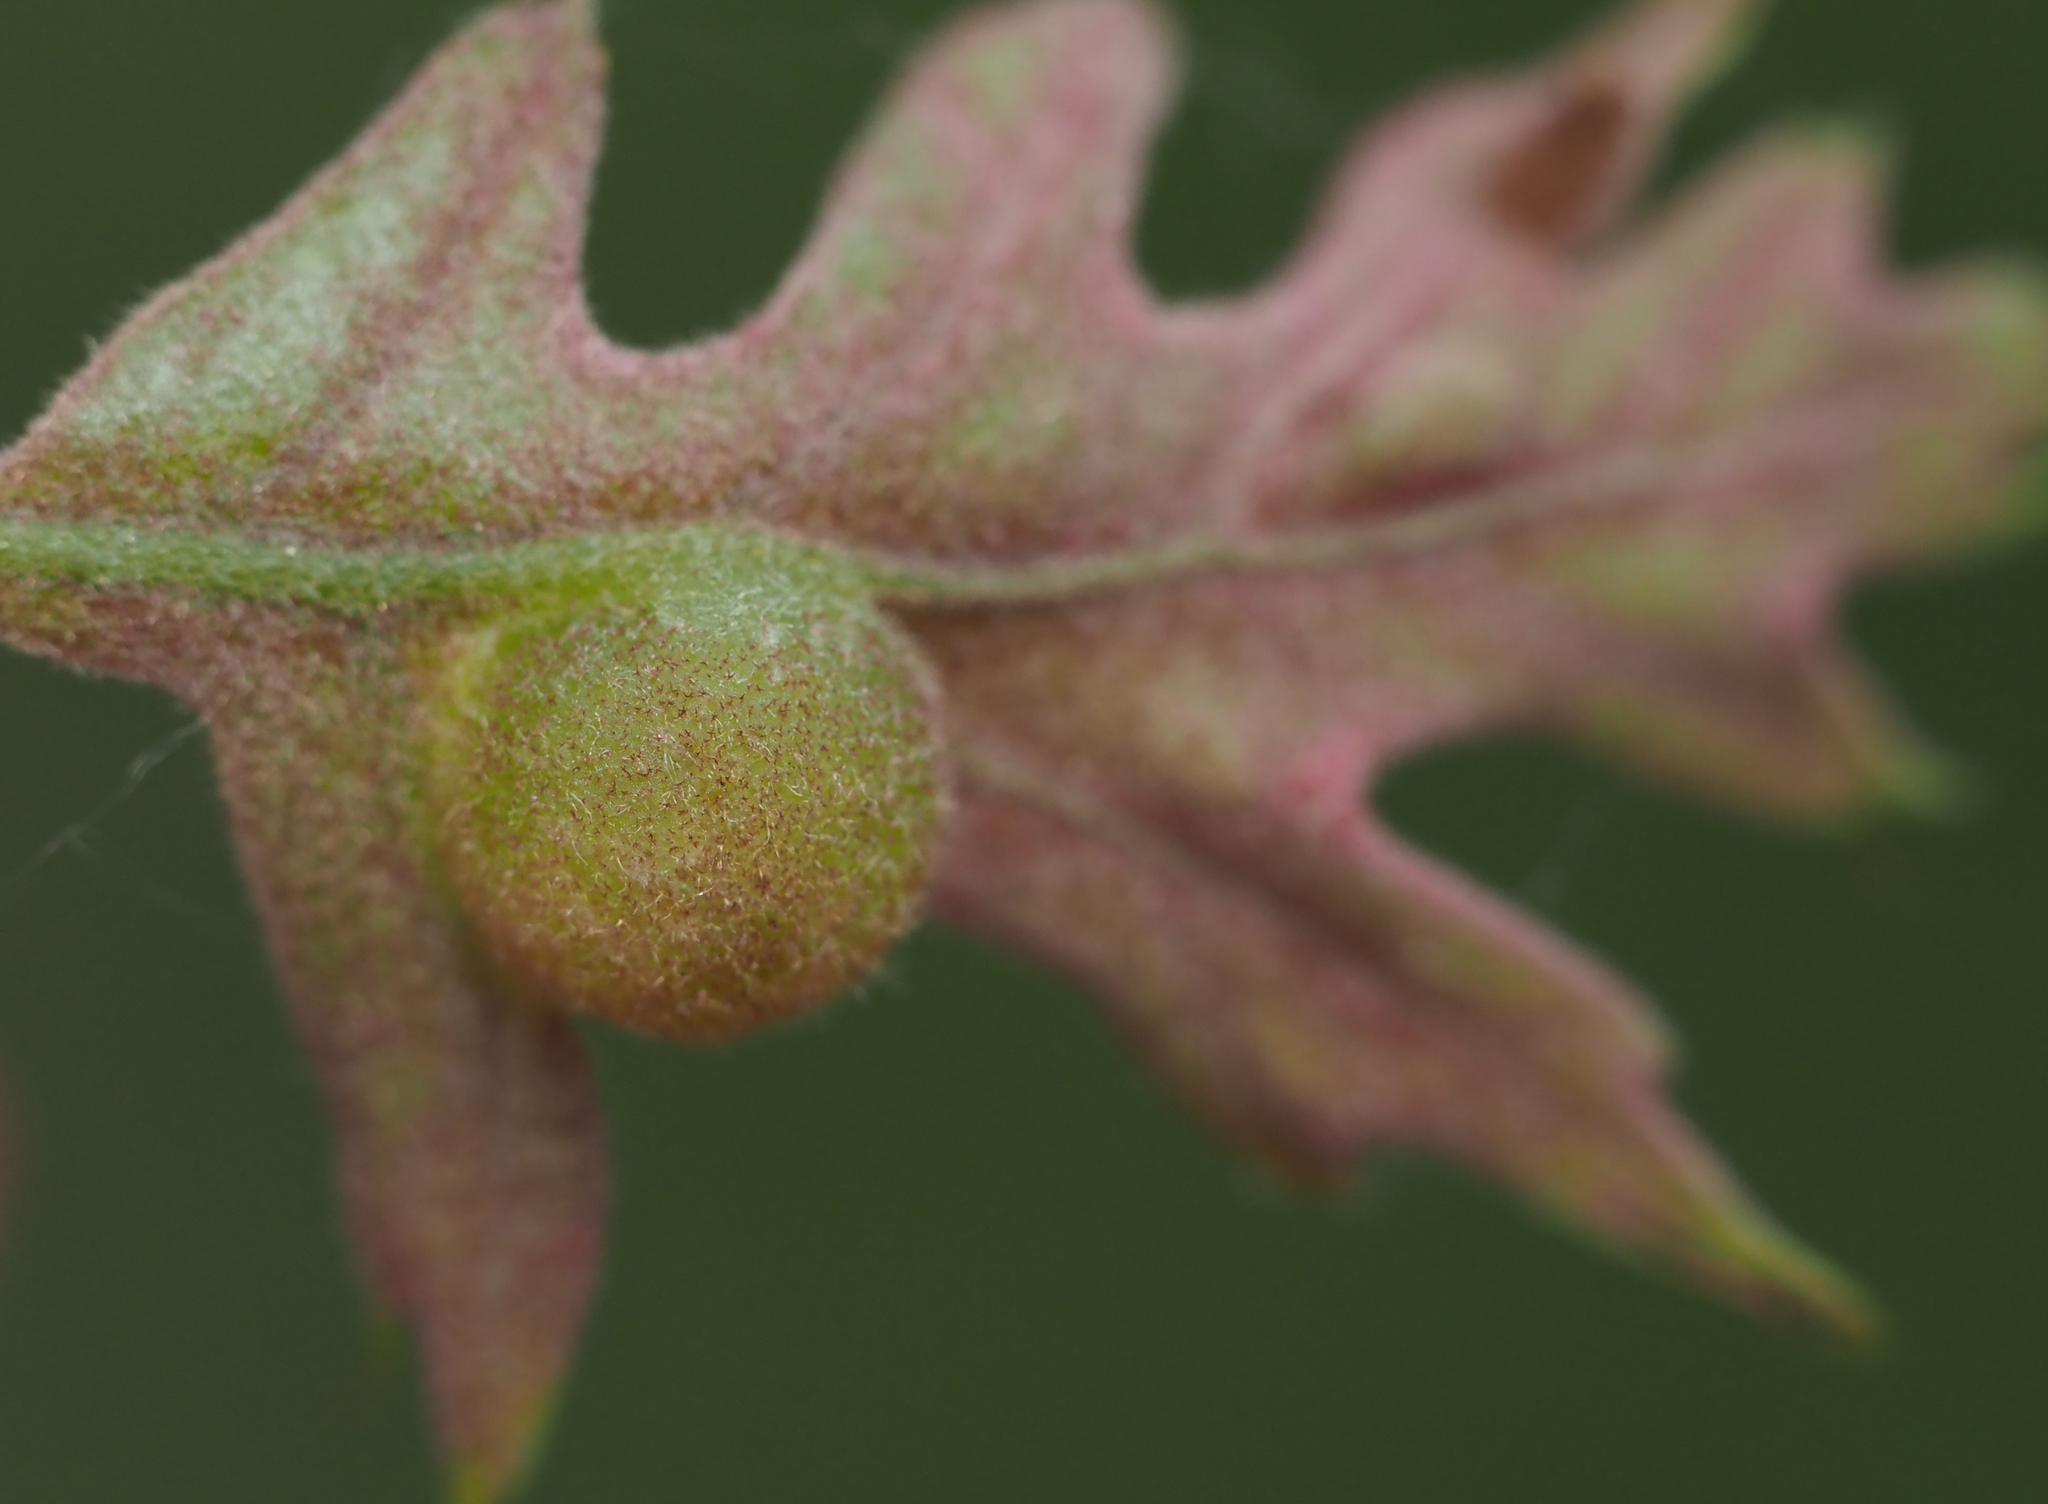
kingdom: Animalia
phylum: Arthropoda
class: Insecta
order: Hymenoptera
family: Cynipidae
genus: Dryocosmus
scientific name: Dryocosmus quercuspalustris
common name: Succulent oak gall wasp
